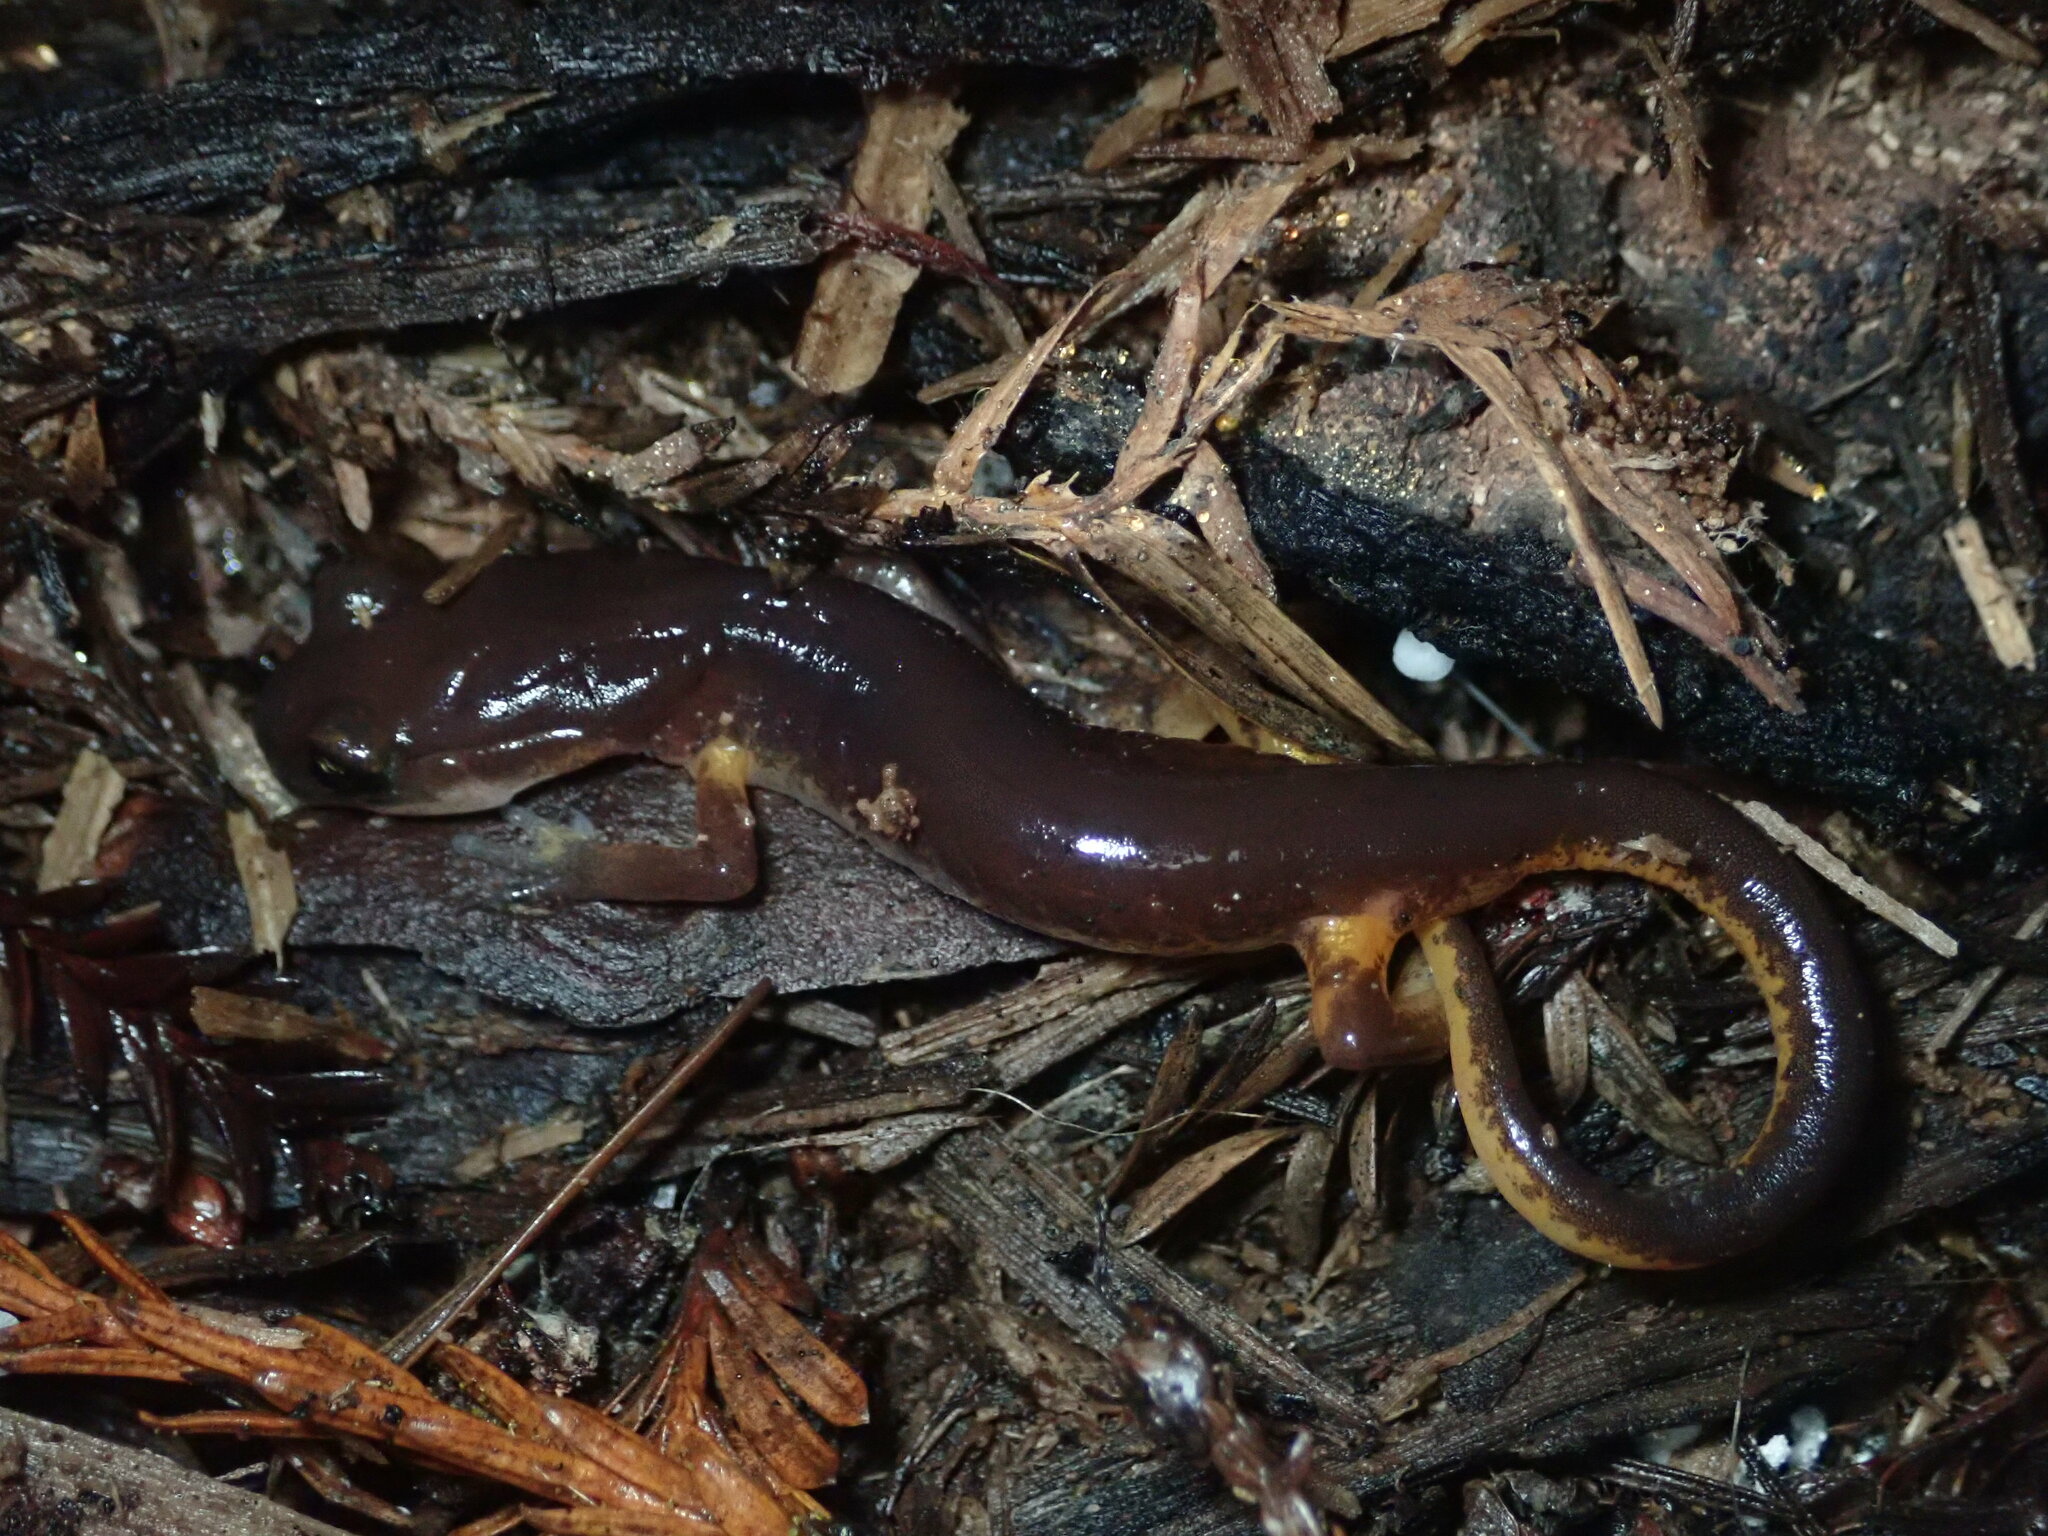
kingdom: Animalia
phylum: Chordata
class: Amphibia
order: Caudata
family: Plethodontidae
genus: Ensatina
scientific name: Ensatina eschscholtzii
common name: Ensatina
